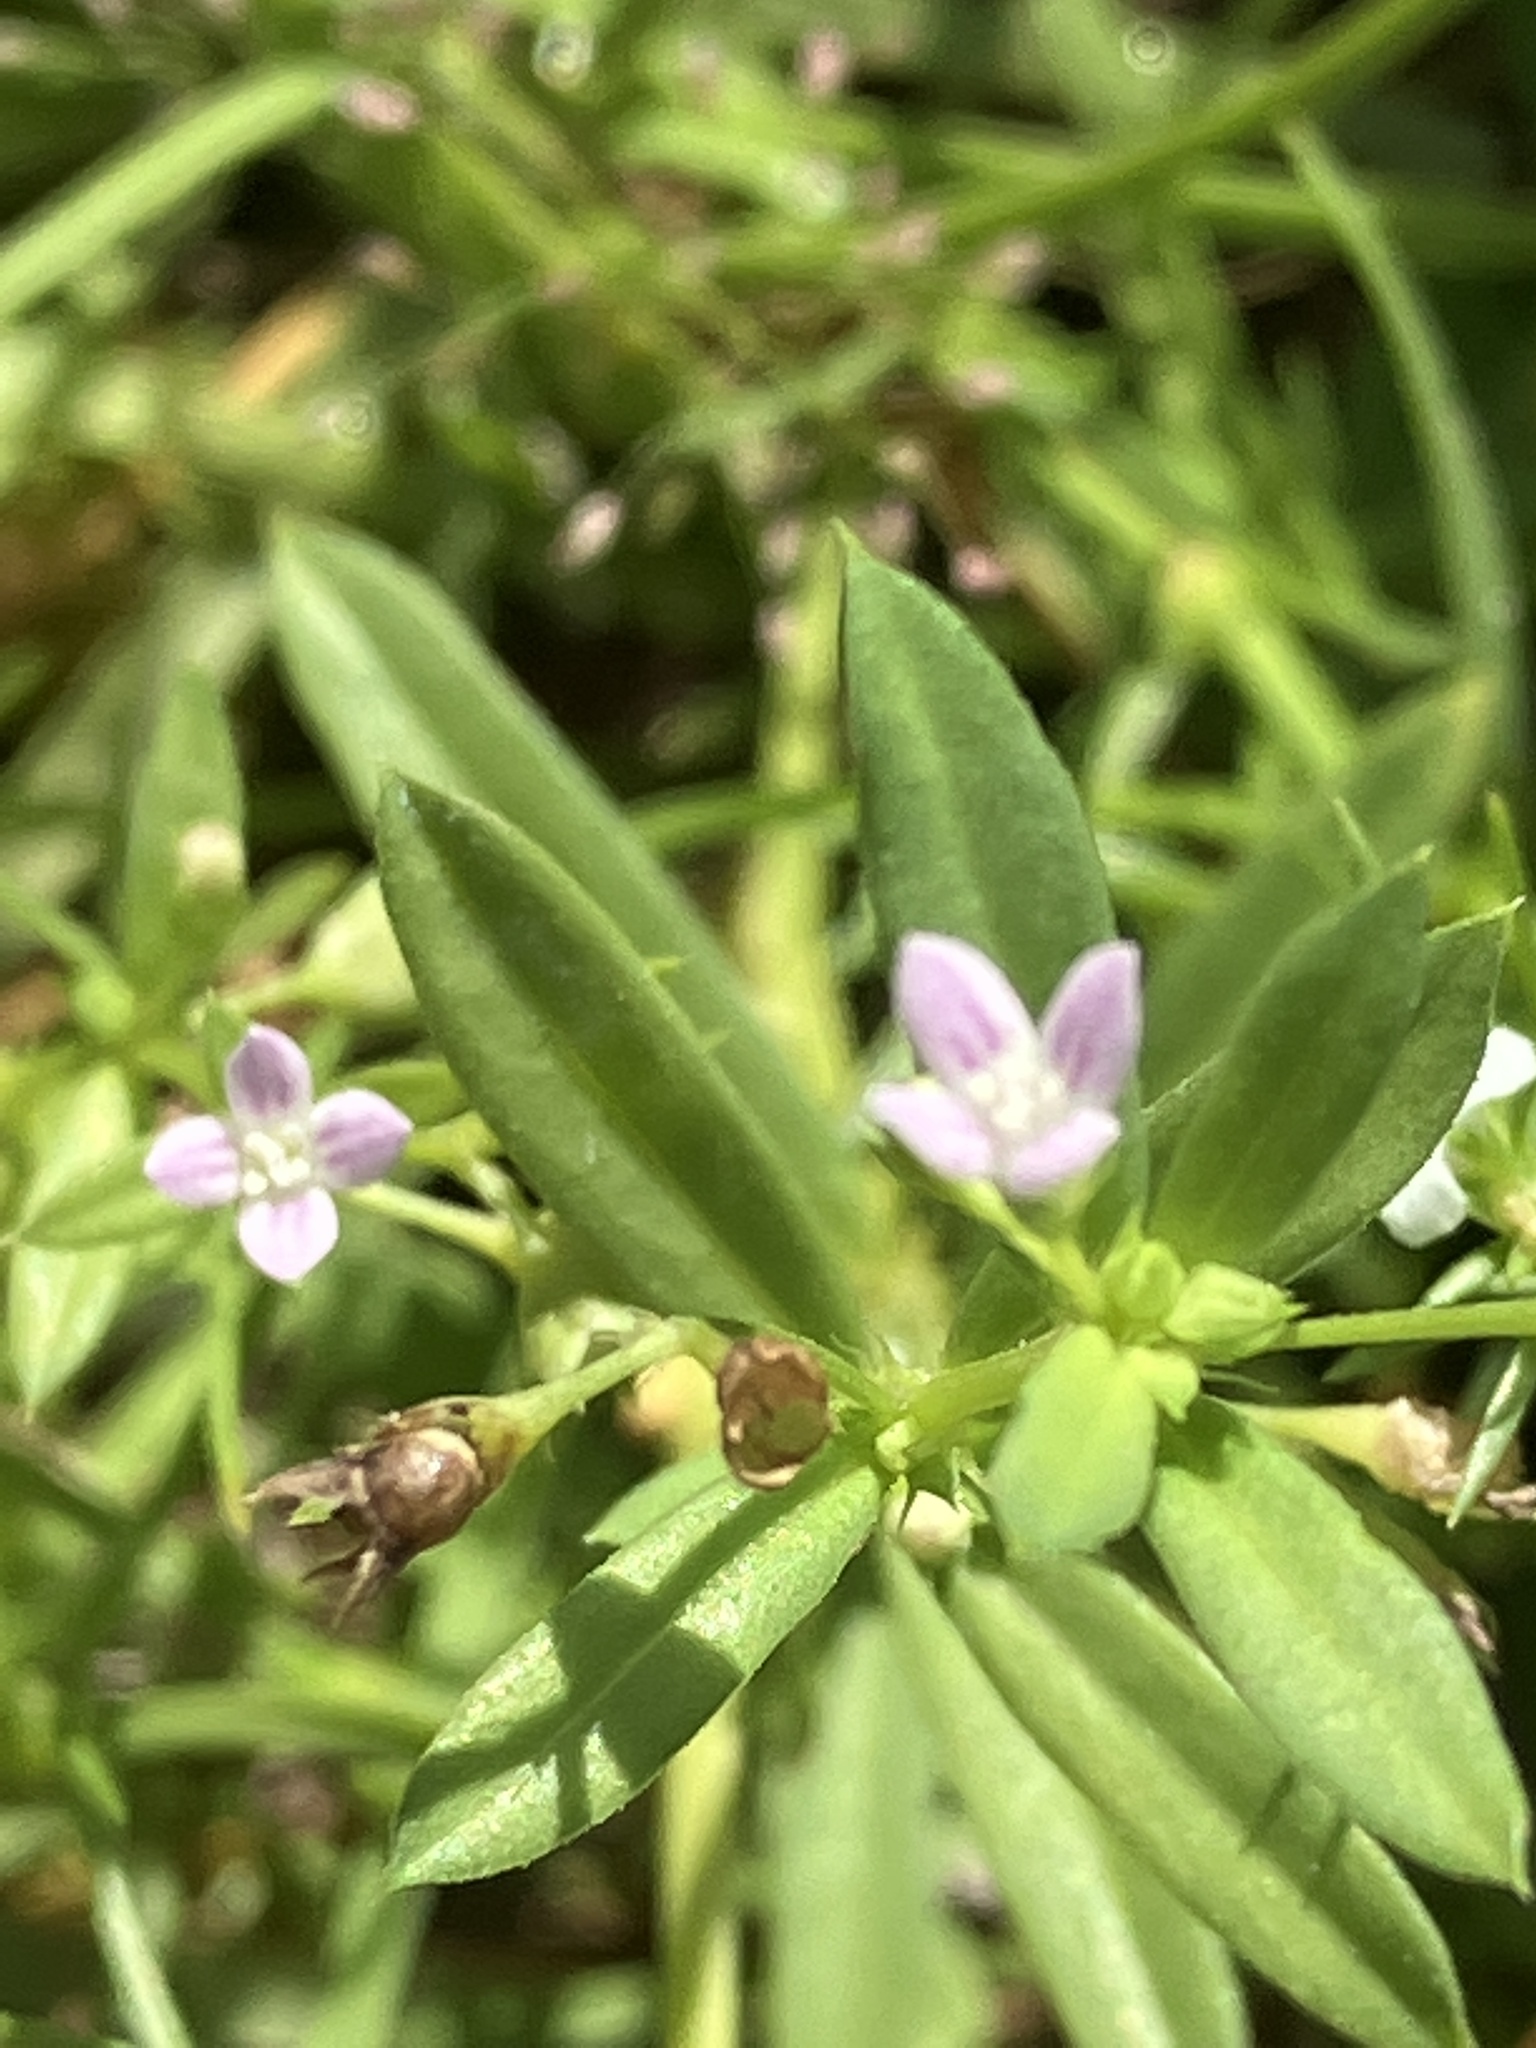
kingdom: Plantae
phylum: Tracheophyta
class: Magnoliopsida
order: Gentianales
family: Rubiaceae
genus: Oldenlandia
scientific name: Oldenlandia corymbosa
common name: Flat-top mille graines
